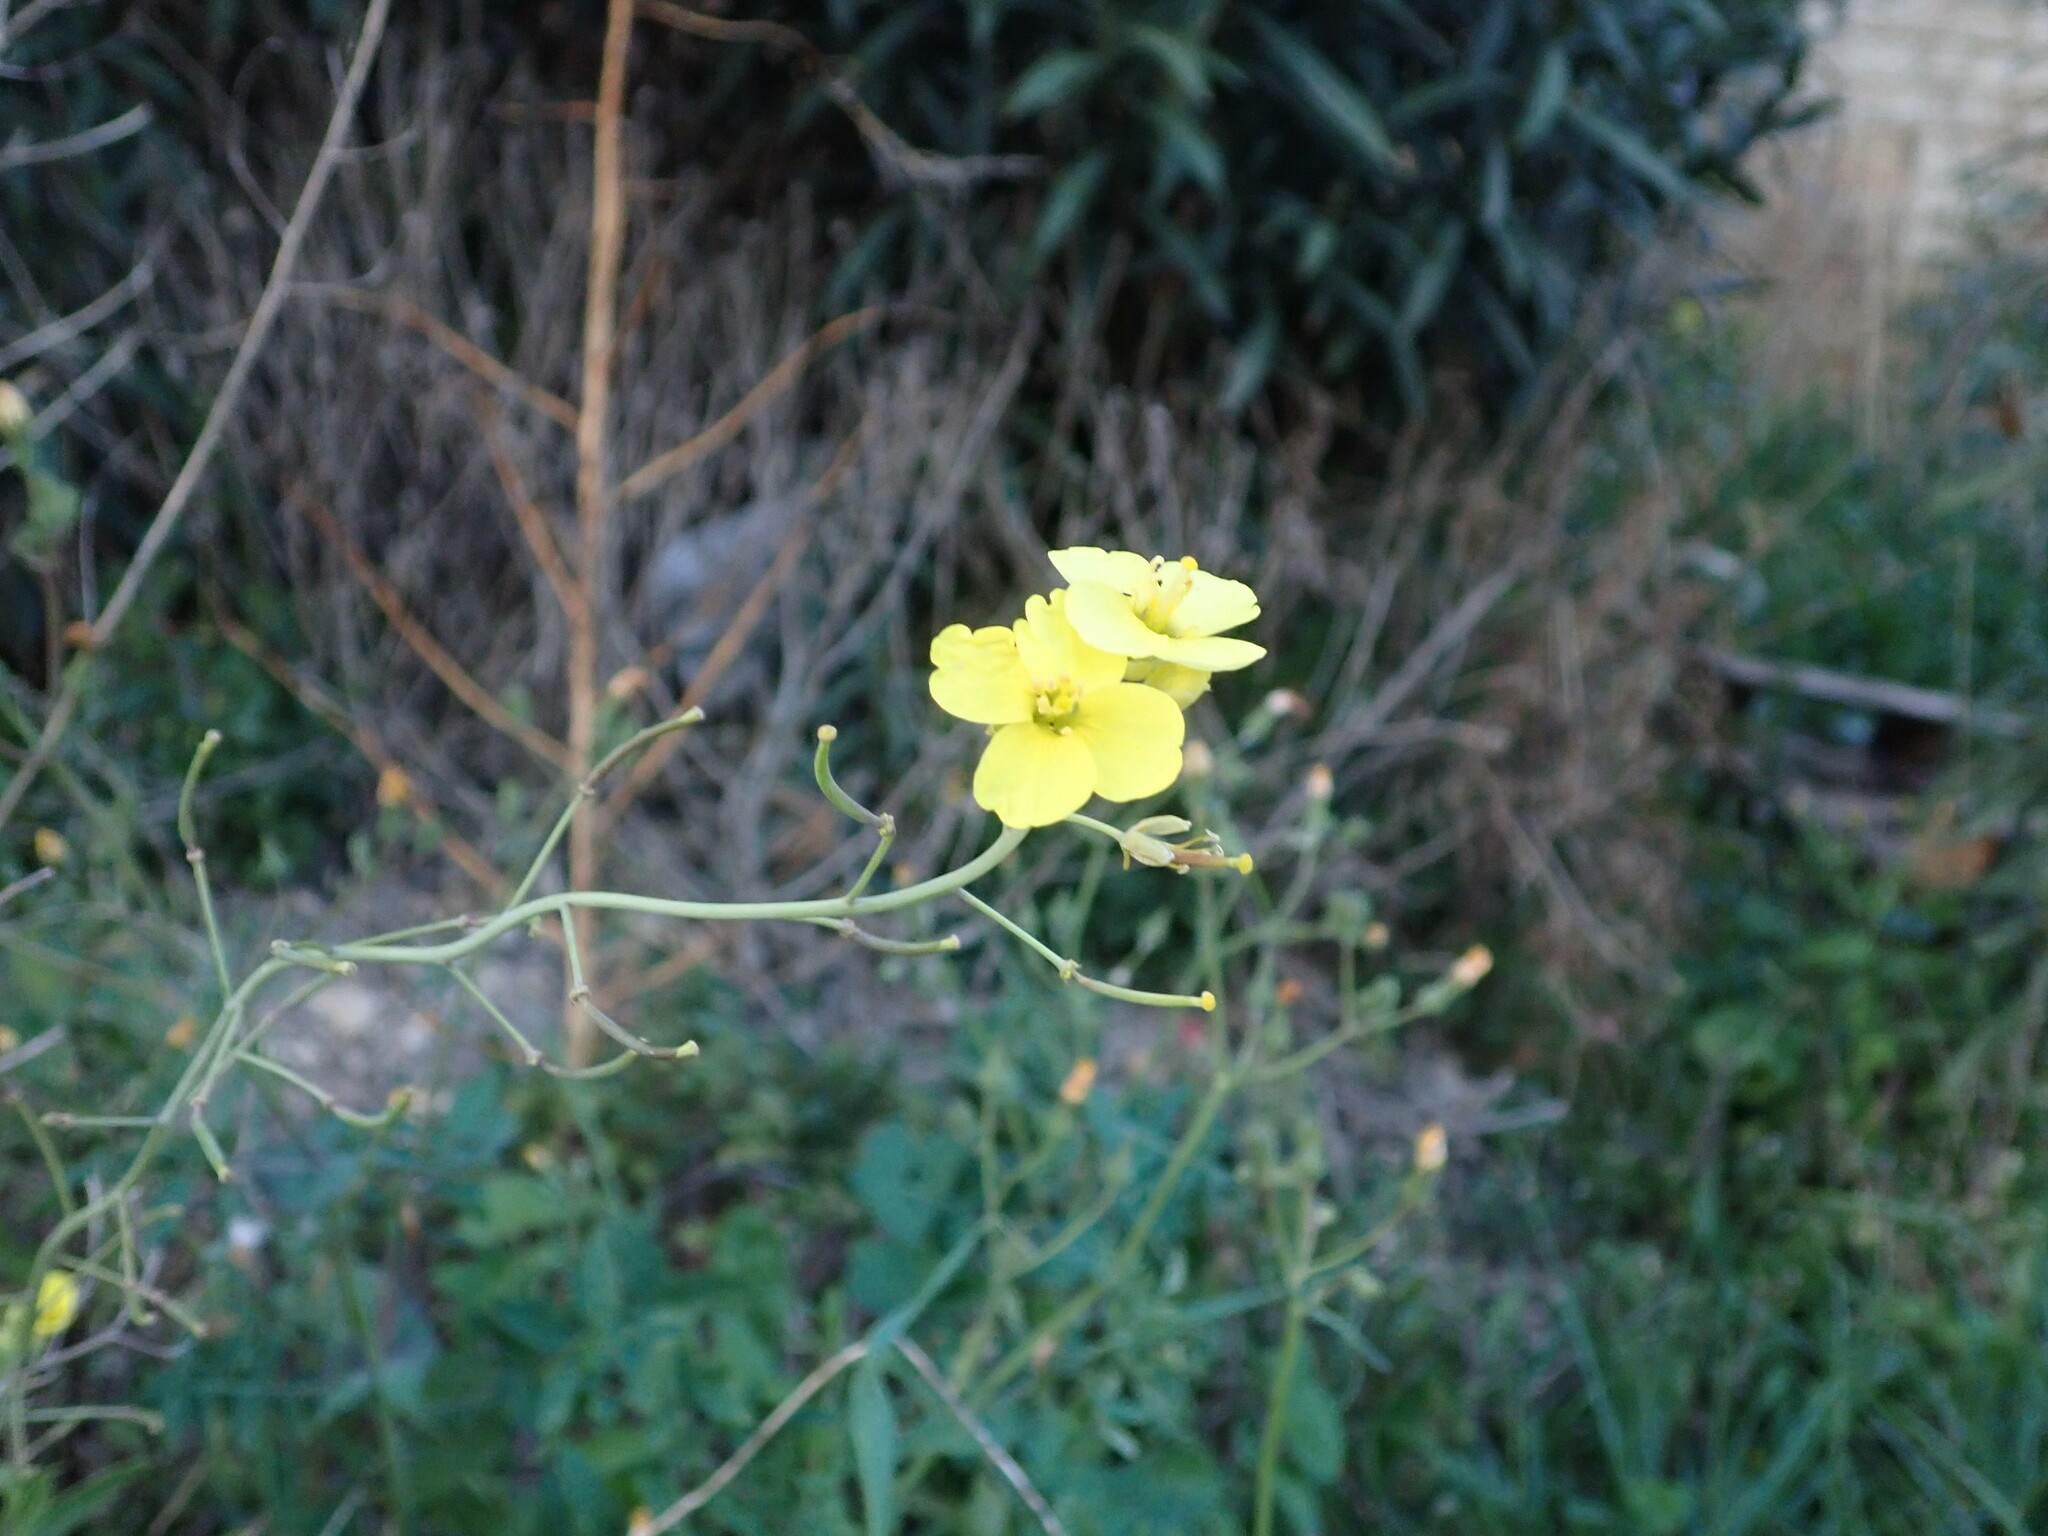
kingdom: Plantae
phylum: Tracheophyta
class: Magnoliopsida
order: Brassicales
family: Brassicaceae
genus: Diplotaxis
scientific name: Diplotaxis tenuifolia
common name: Perennial wall-rocket
